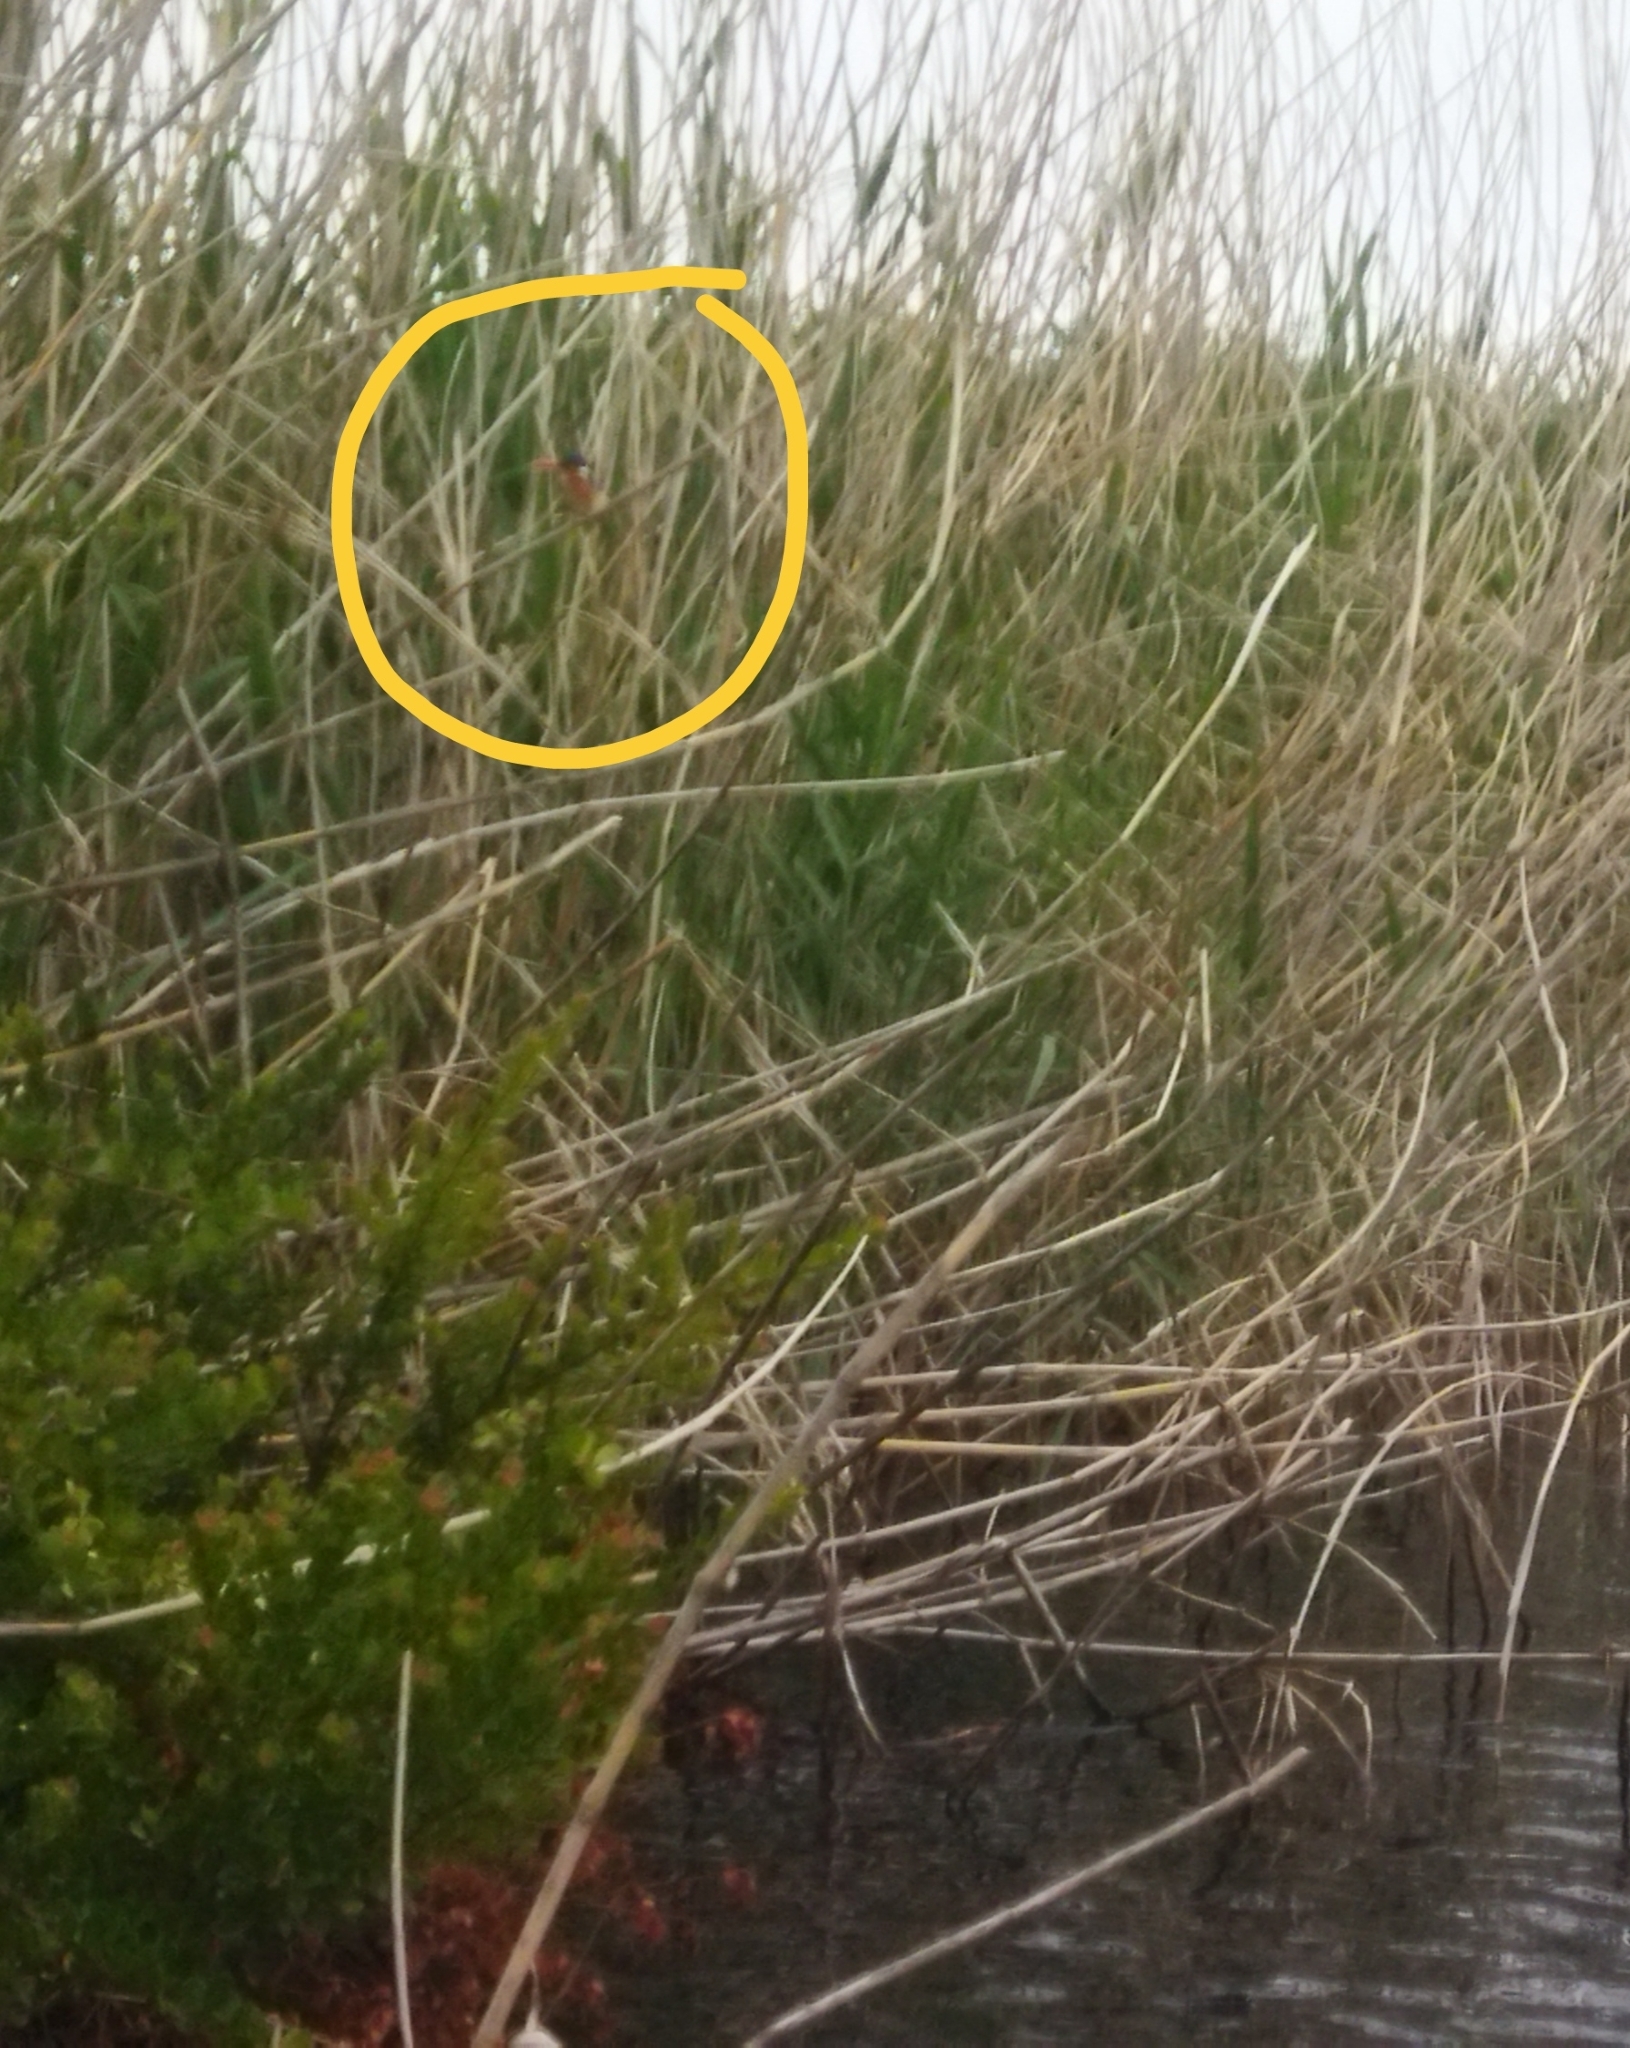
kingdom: Animalia
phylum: Chordata
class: Aves
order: Coraciiformes
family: Alcedinidae
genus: Corythornis
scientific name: Corythornis cristatus
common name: Malachite kingfisher
